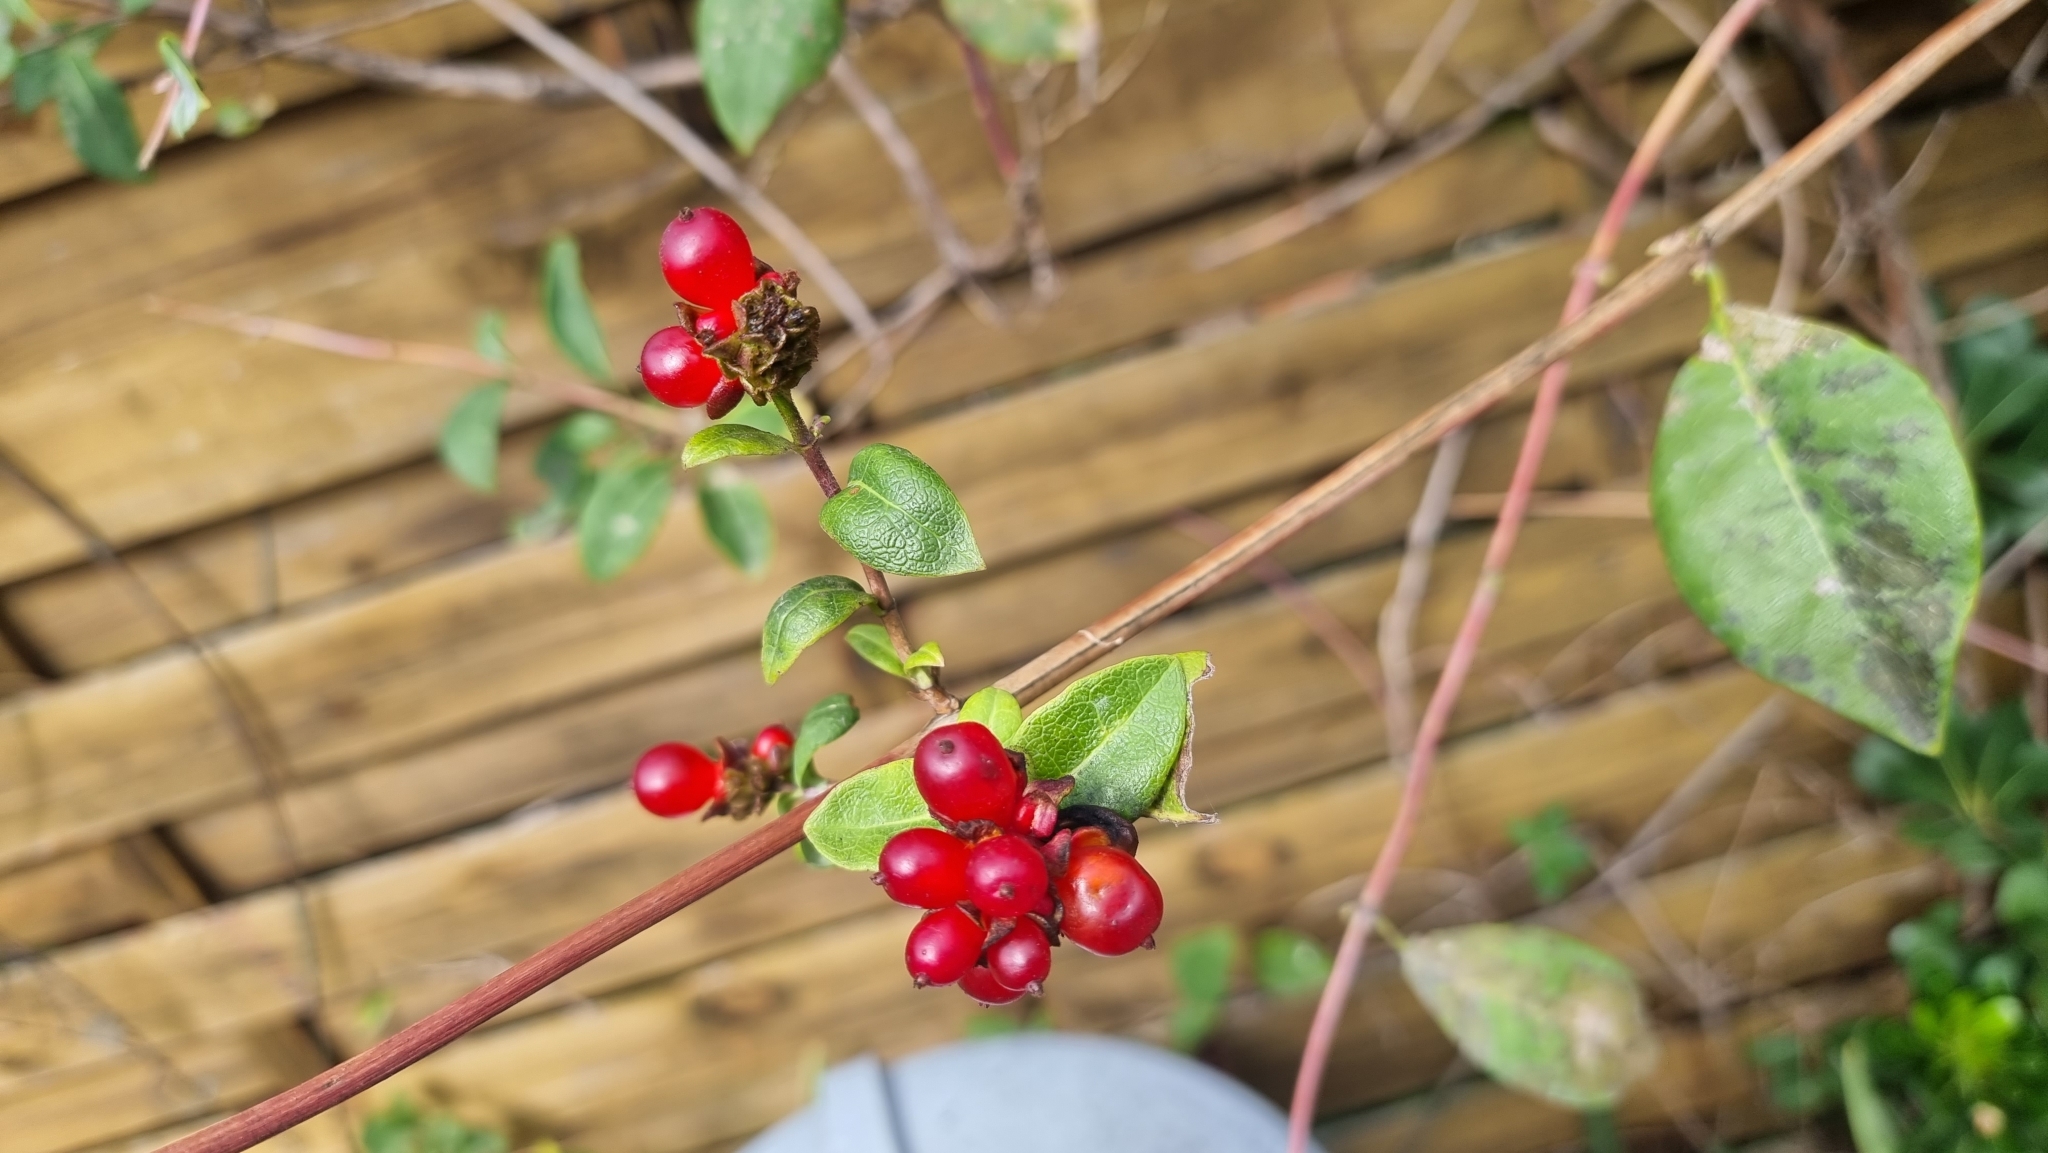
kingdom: Plantae
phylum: Tracheophyta
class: Magnoliopsida
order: Dipsacales
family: Caprifoliaceae
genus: Lonicera
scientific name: Lonicera periclymenum
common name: European honeysuckle
